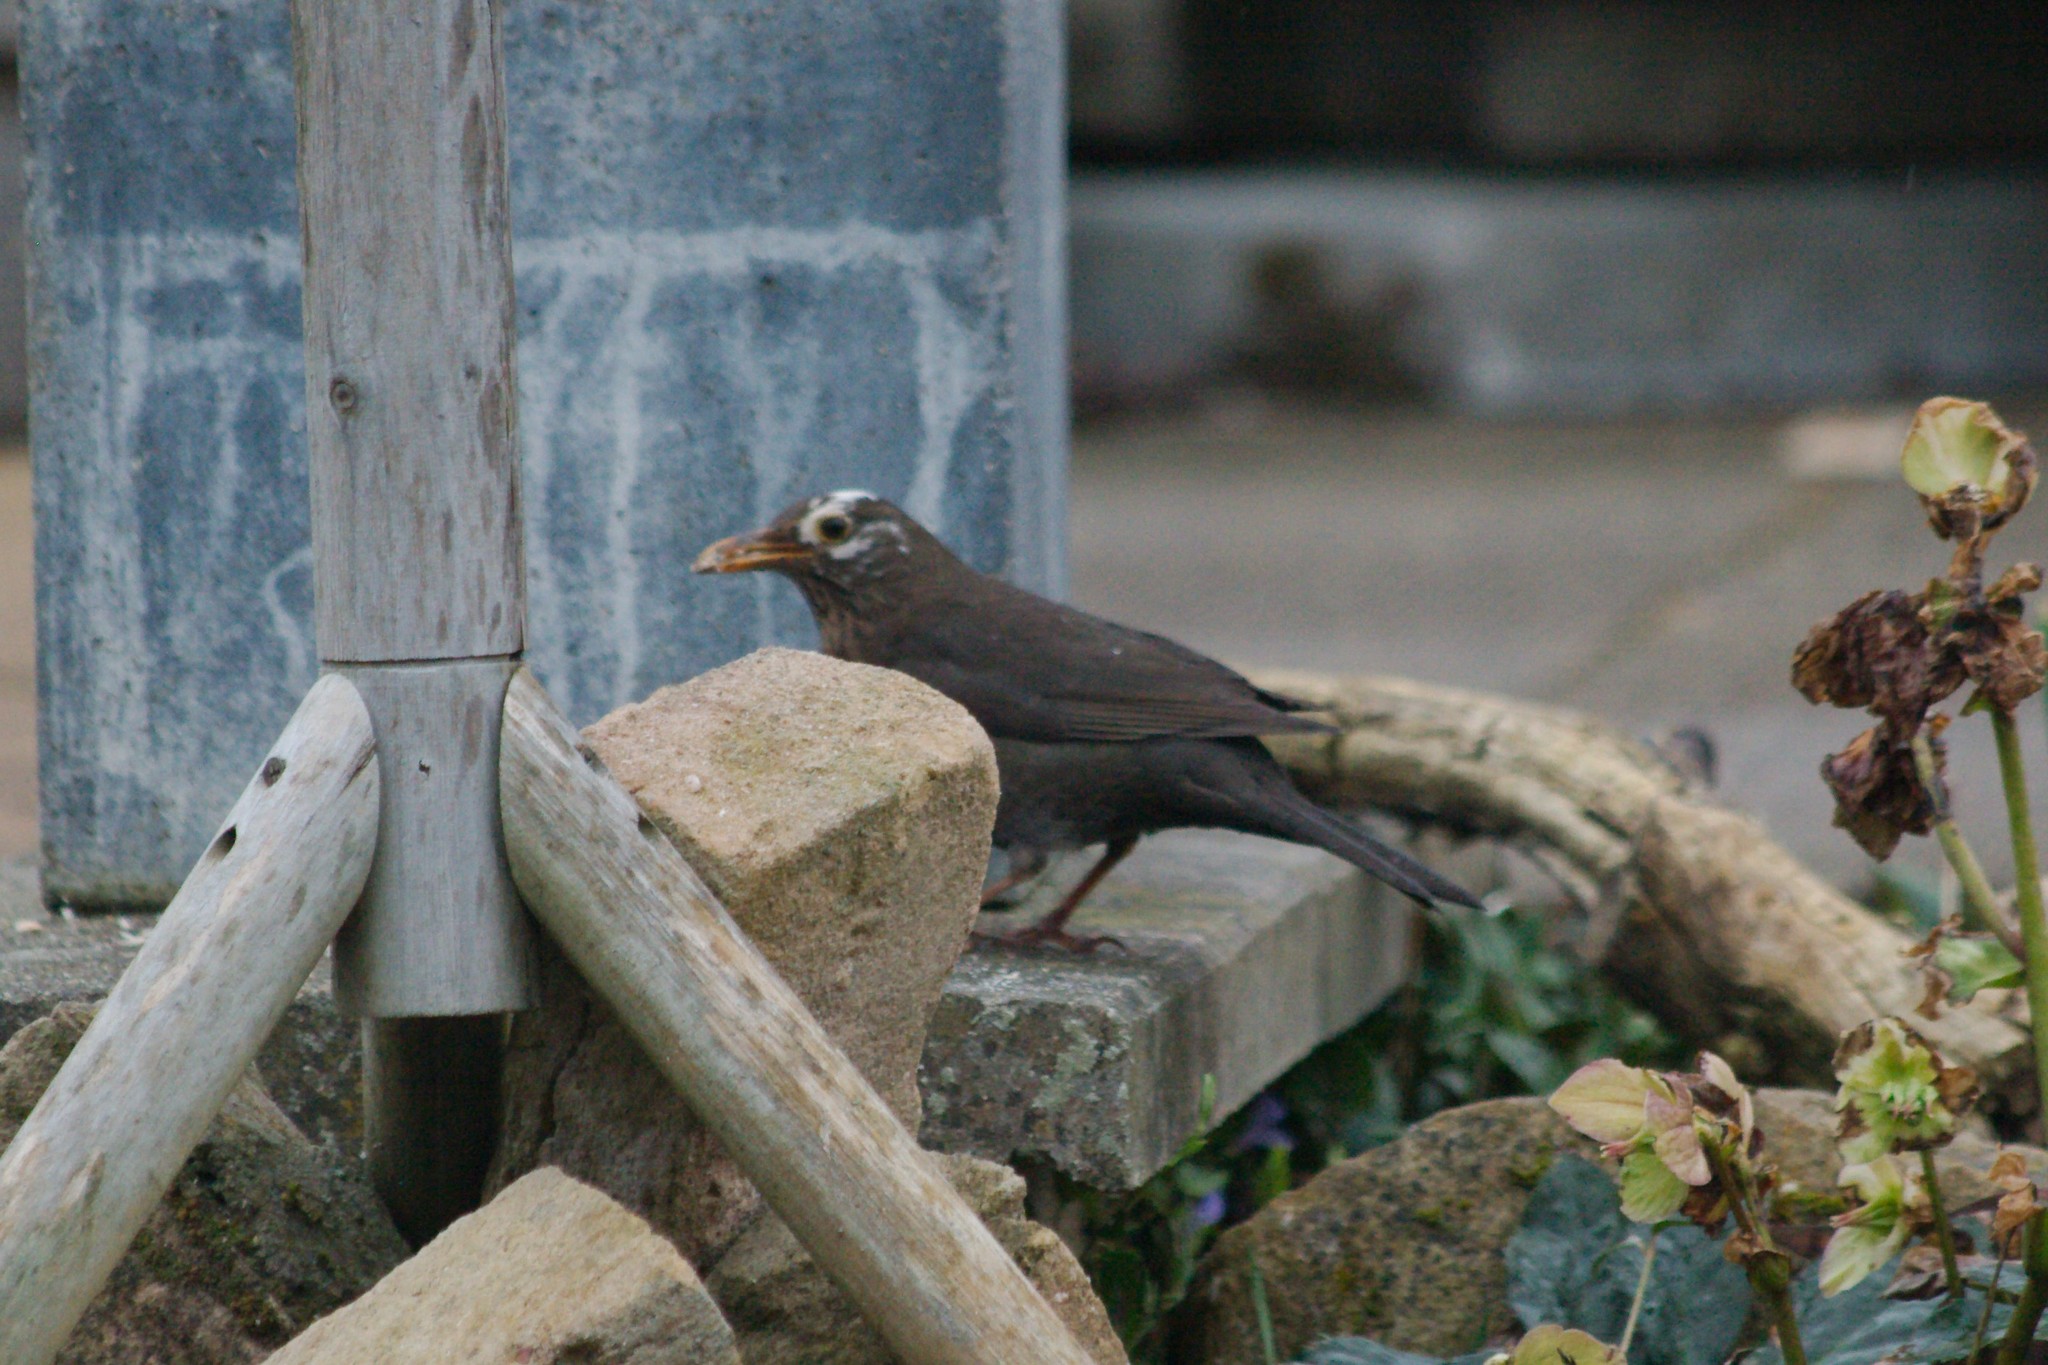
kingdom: Animalia
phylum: Chordata
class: Aves
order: Passeriformes
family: Turdidae
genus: Turdus
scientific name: Turdus merula
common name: Common blackbird
